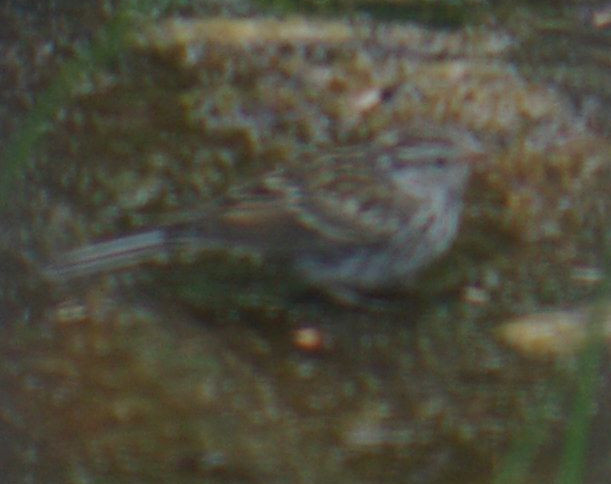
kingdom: Animalia
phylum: Chordata
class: Aves
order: Passeriformes
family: Passerellidae
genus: Spizella
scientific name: Spizella passerina
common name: Chipping sparrow
